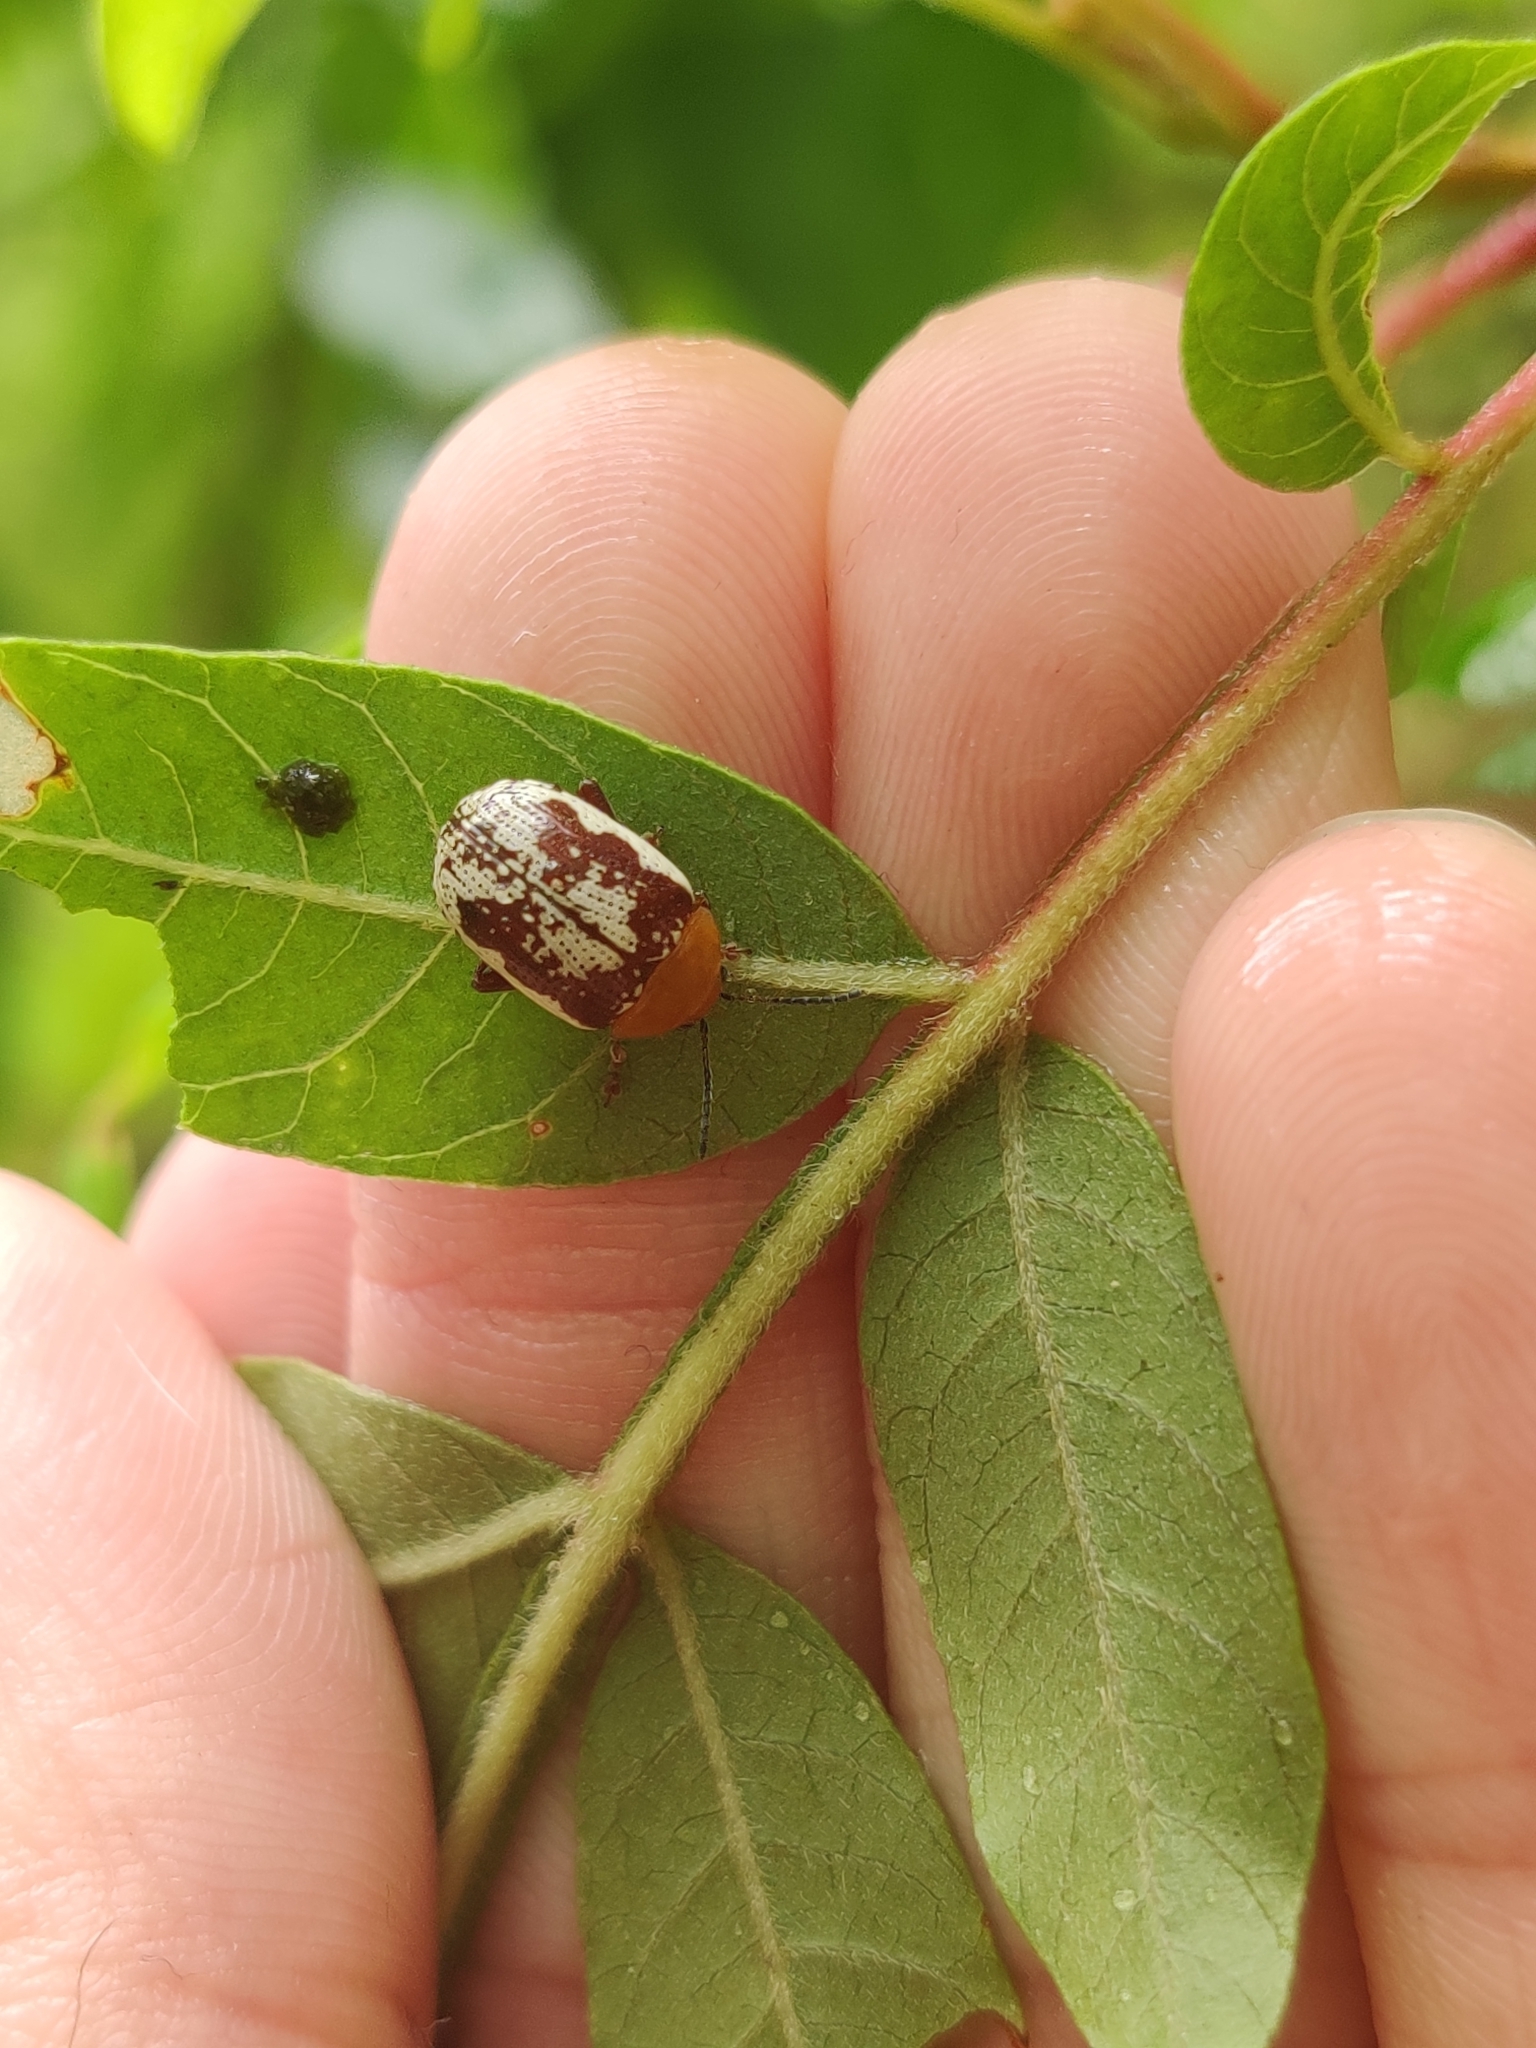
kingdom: Animalia
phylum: Arthropoda
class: Insecta
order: Coleoptera
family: Chrysomelidae
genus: Blepharida
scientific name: Blepharida rhois
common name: Sumac flea beetle
